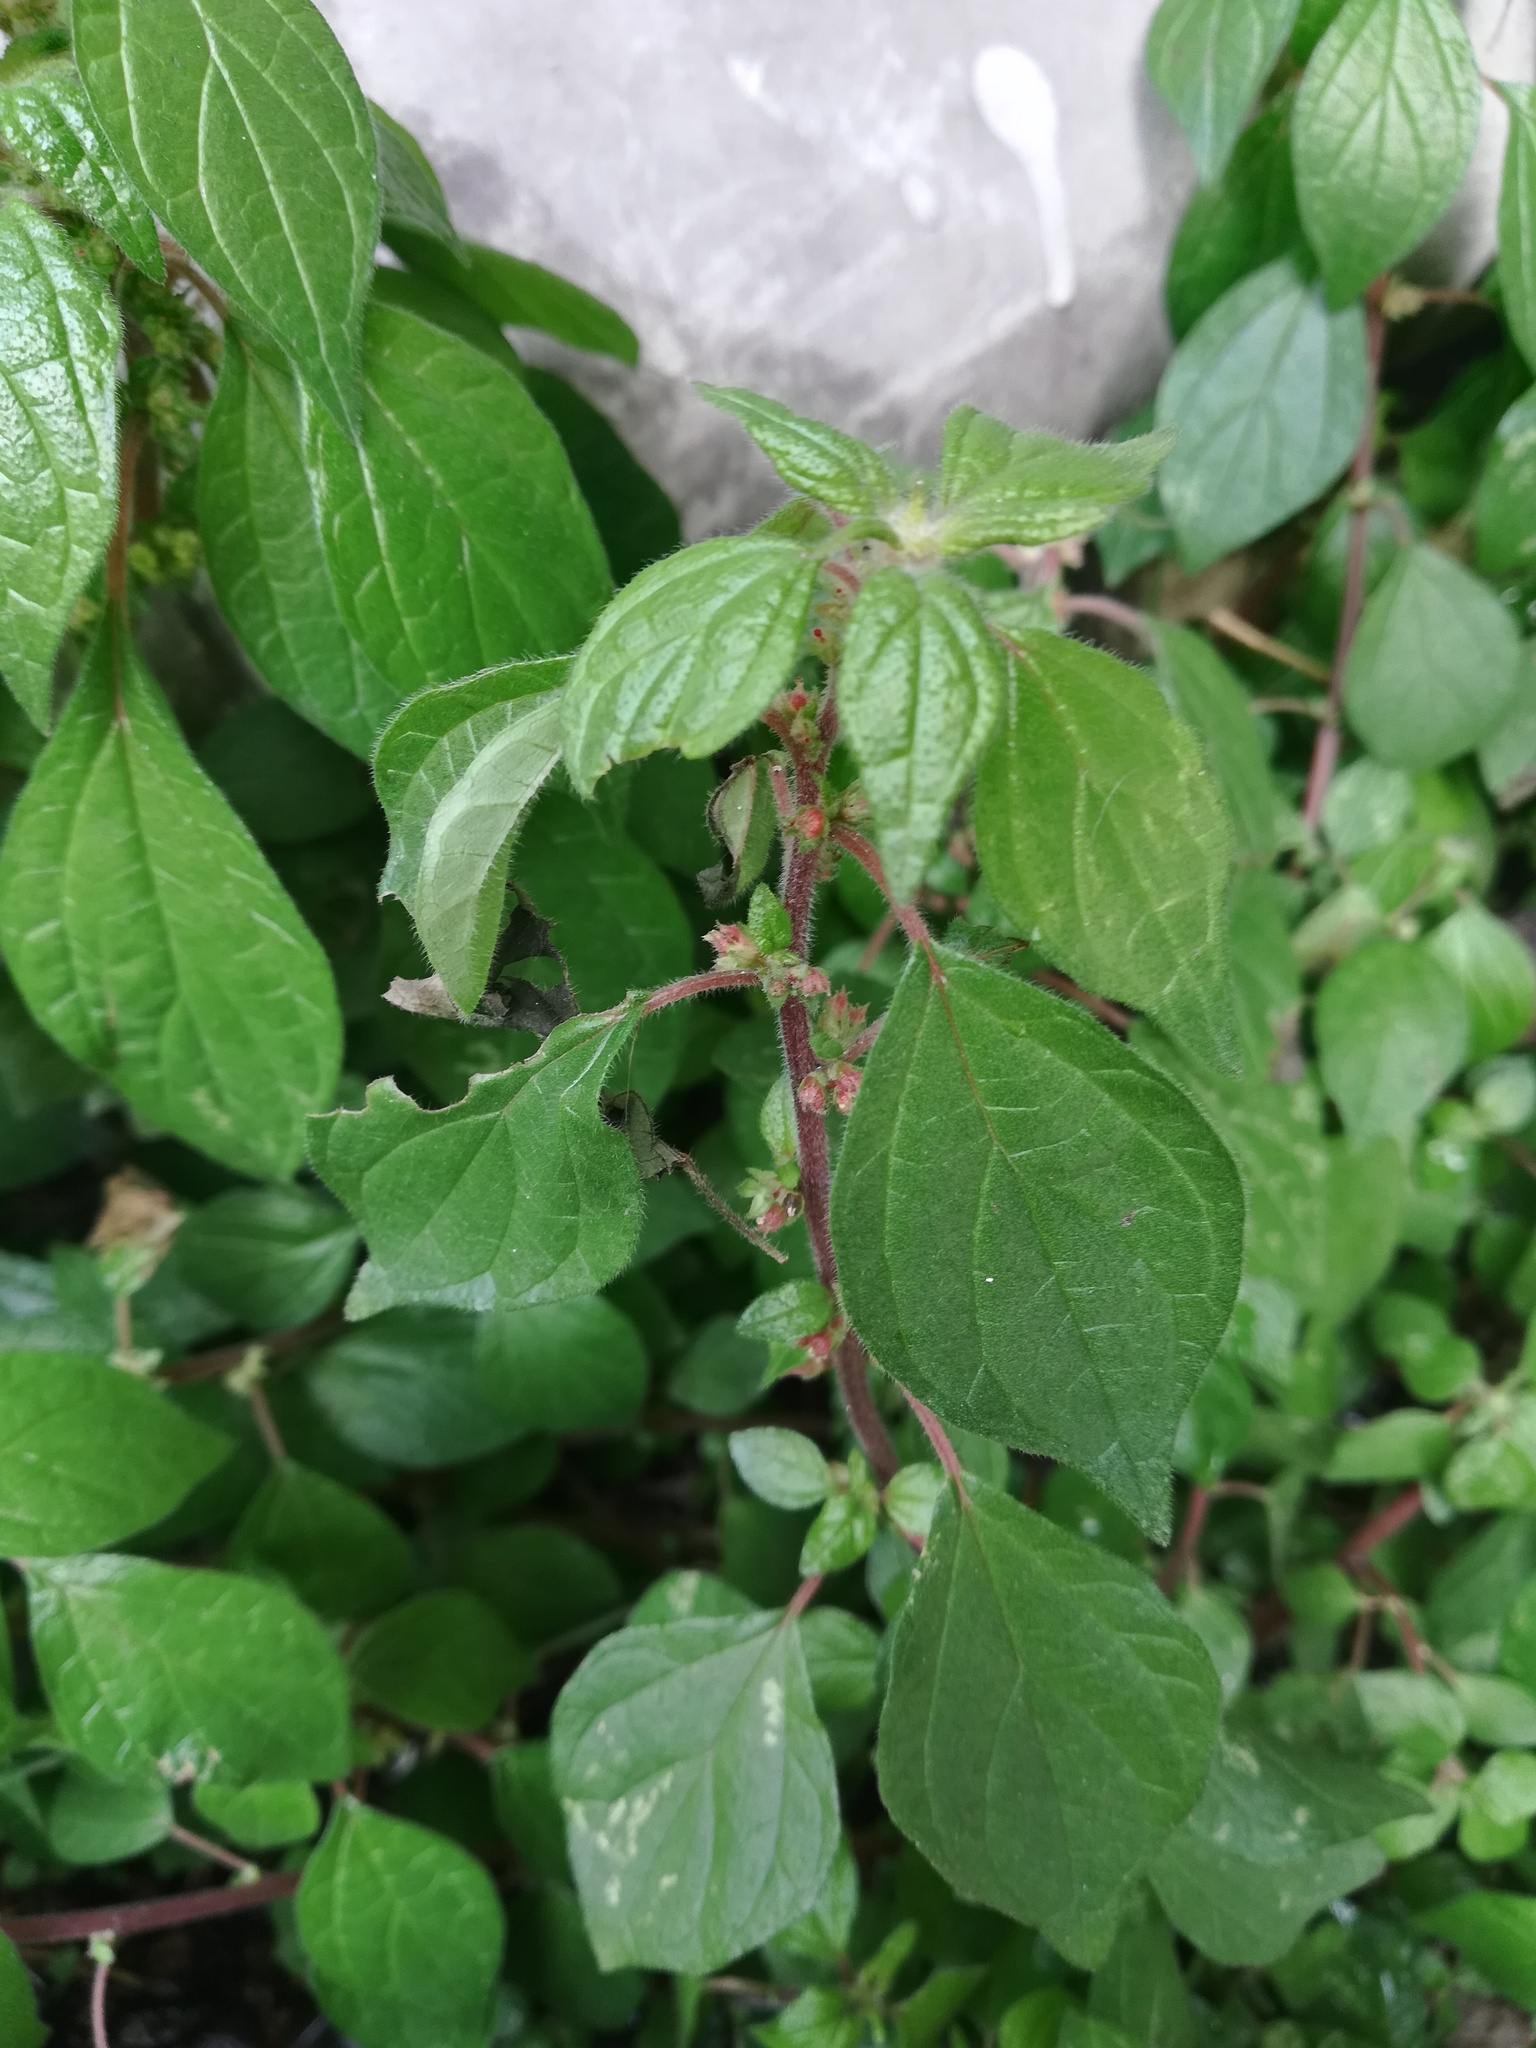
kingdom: Plantae
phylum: Tracheophyta
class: Magnoliopsida
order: Rosales
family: Urticaceae
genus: Parietaria
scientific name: Parietaria judaica
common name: Pellitory-of-the-wall
